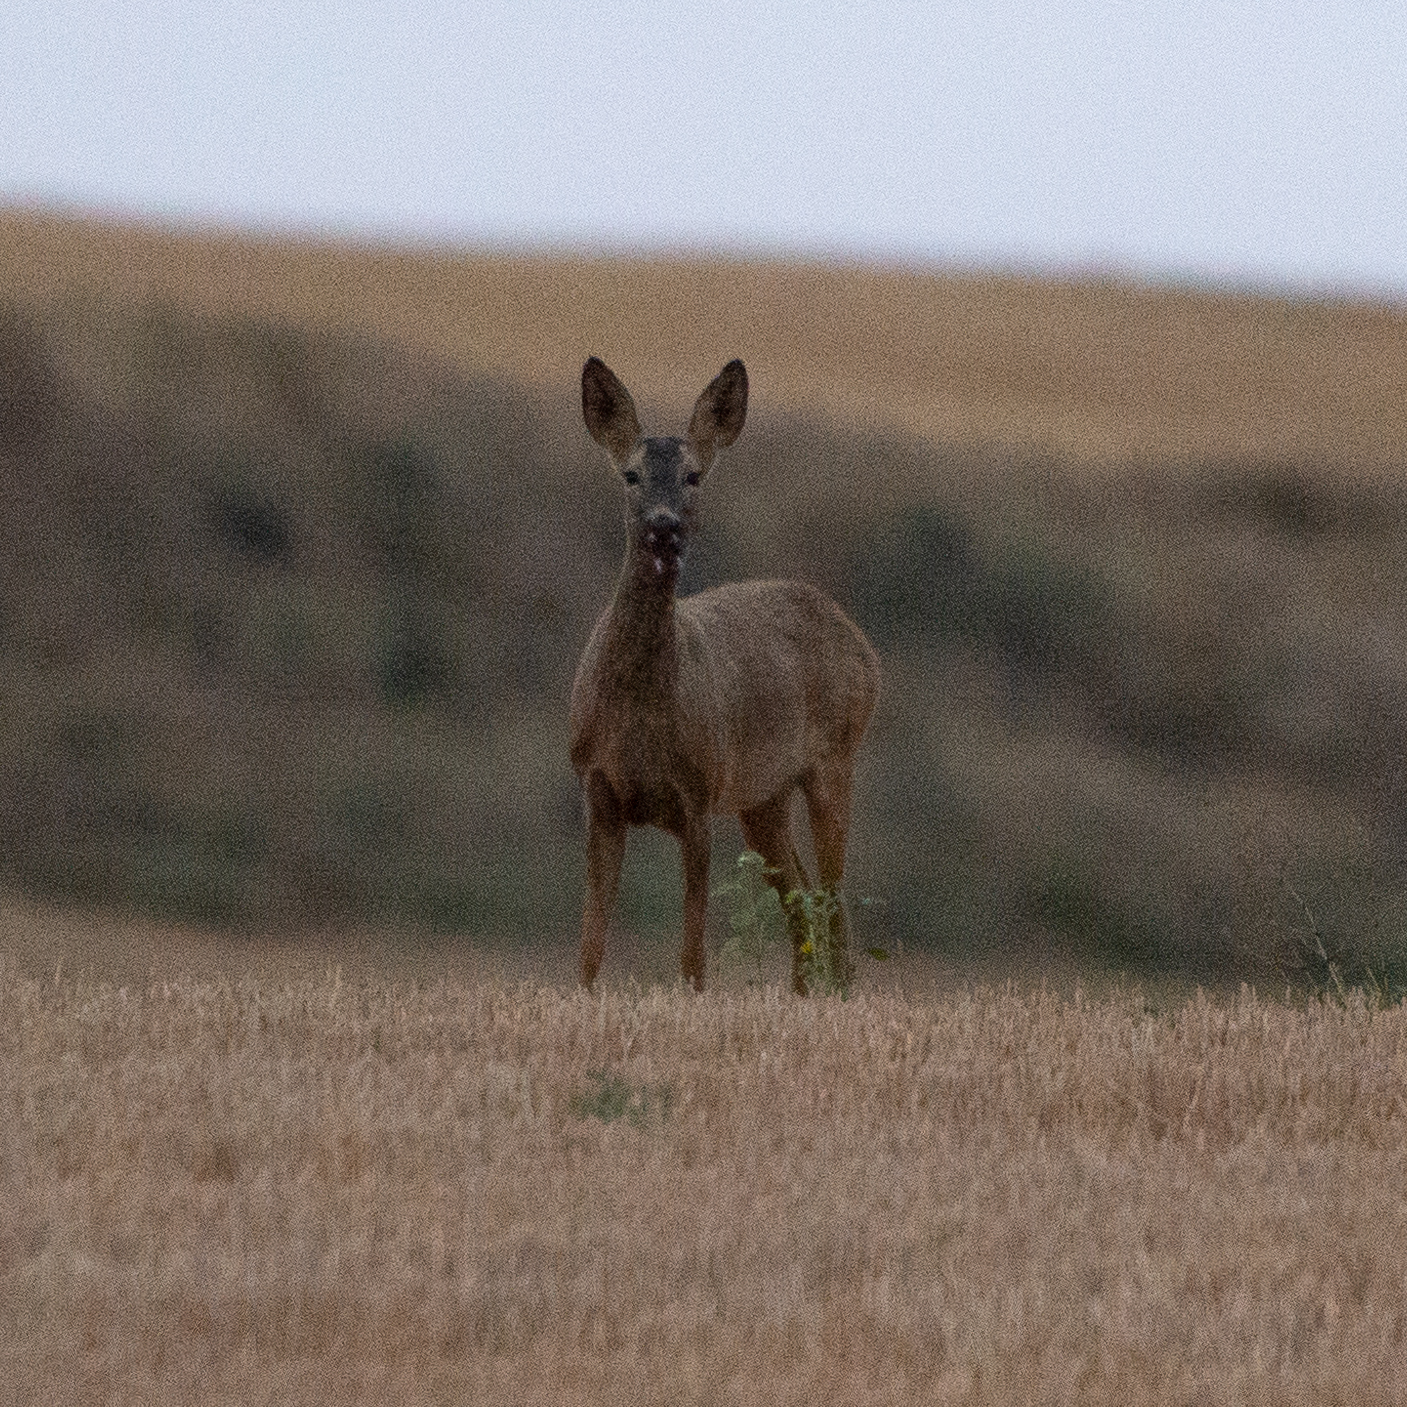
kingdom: Animalia
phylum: Chordata
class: Mammalia
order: Artiodactyla
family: Cervidae
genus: Capreolus
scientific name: Capreolus capreolus
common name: Western roe deer
